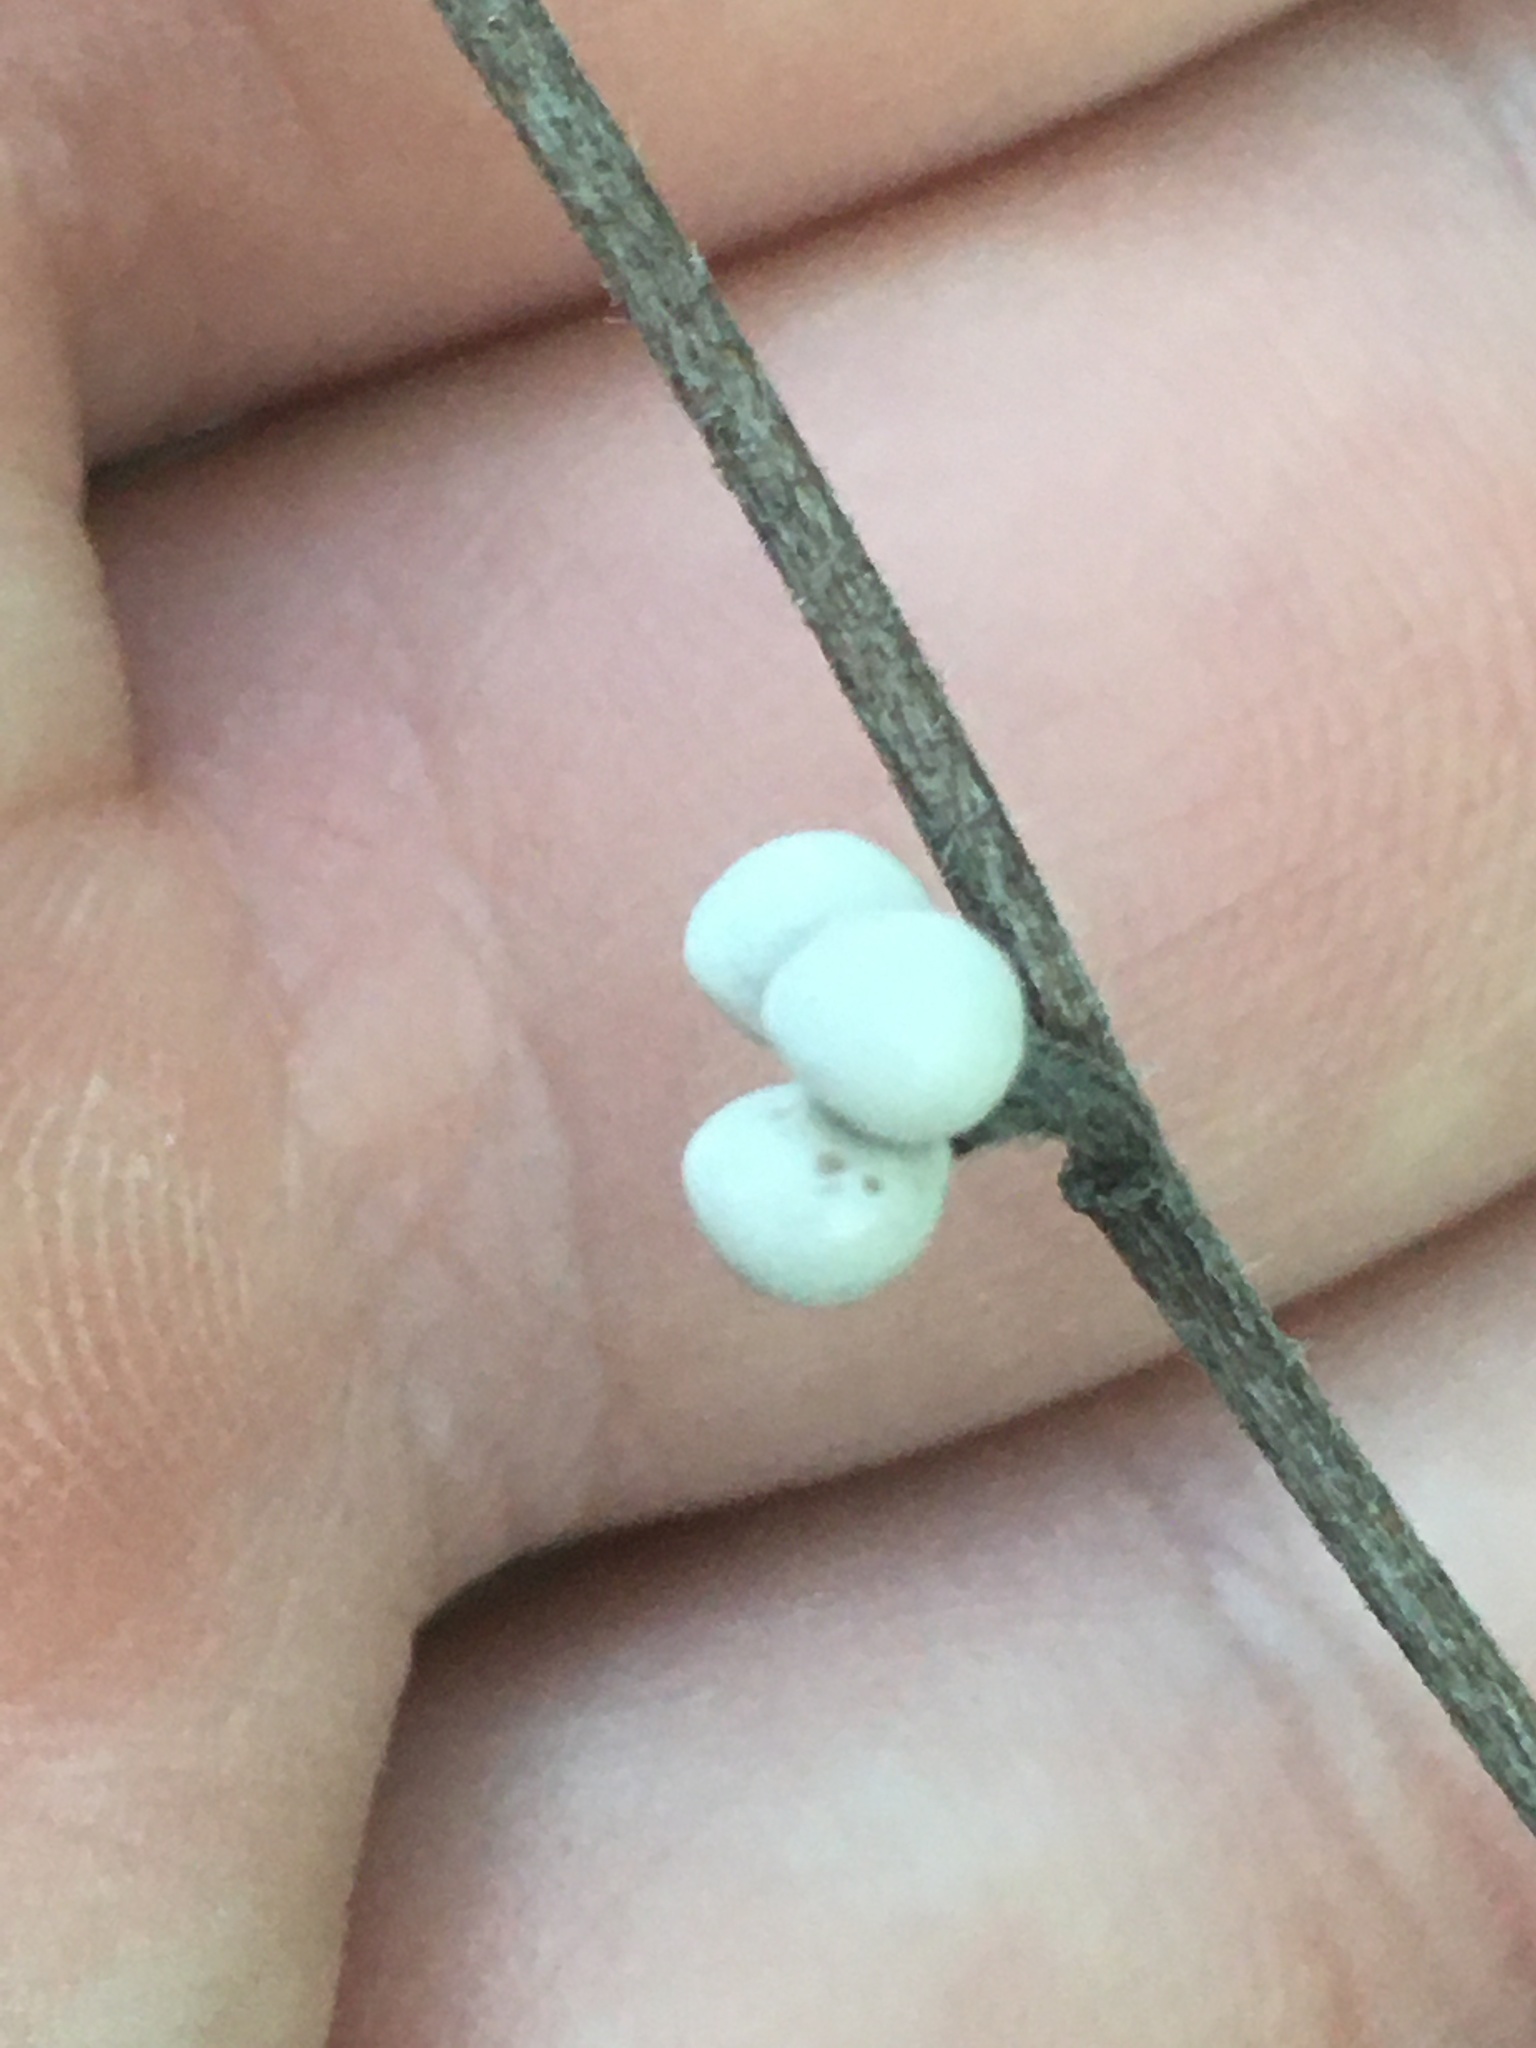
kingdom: Plantae
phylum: Tracheophyta
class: Magnoliopsida
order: Boraginales
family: Boraginaceae
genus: Aegonychon
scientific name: Aegonychon purpurocaeruleum
